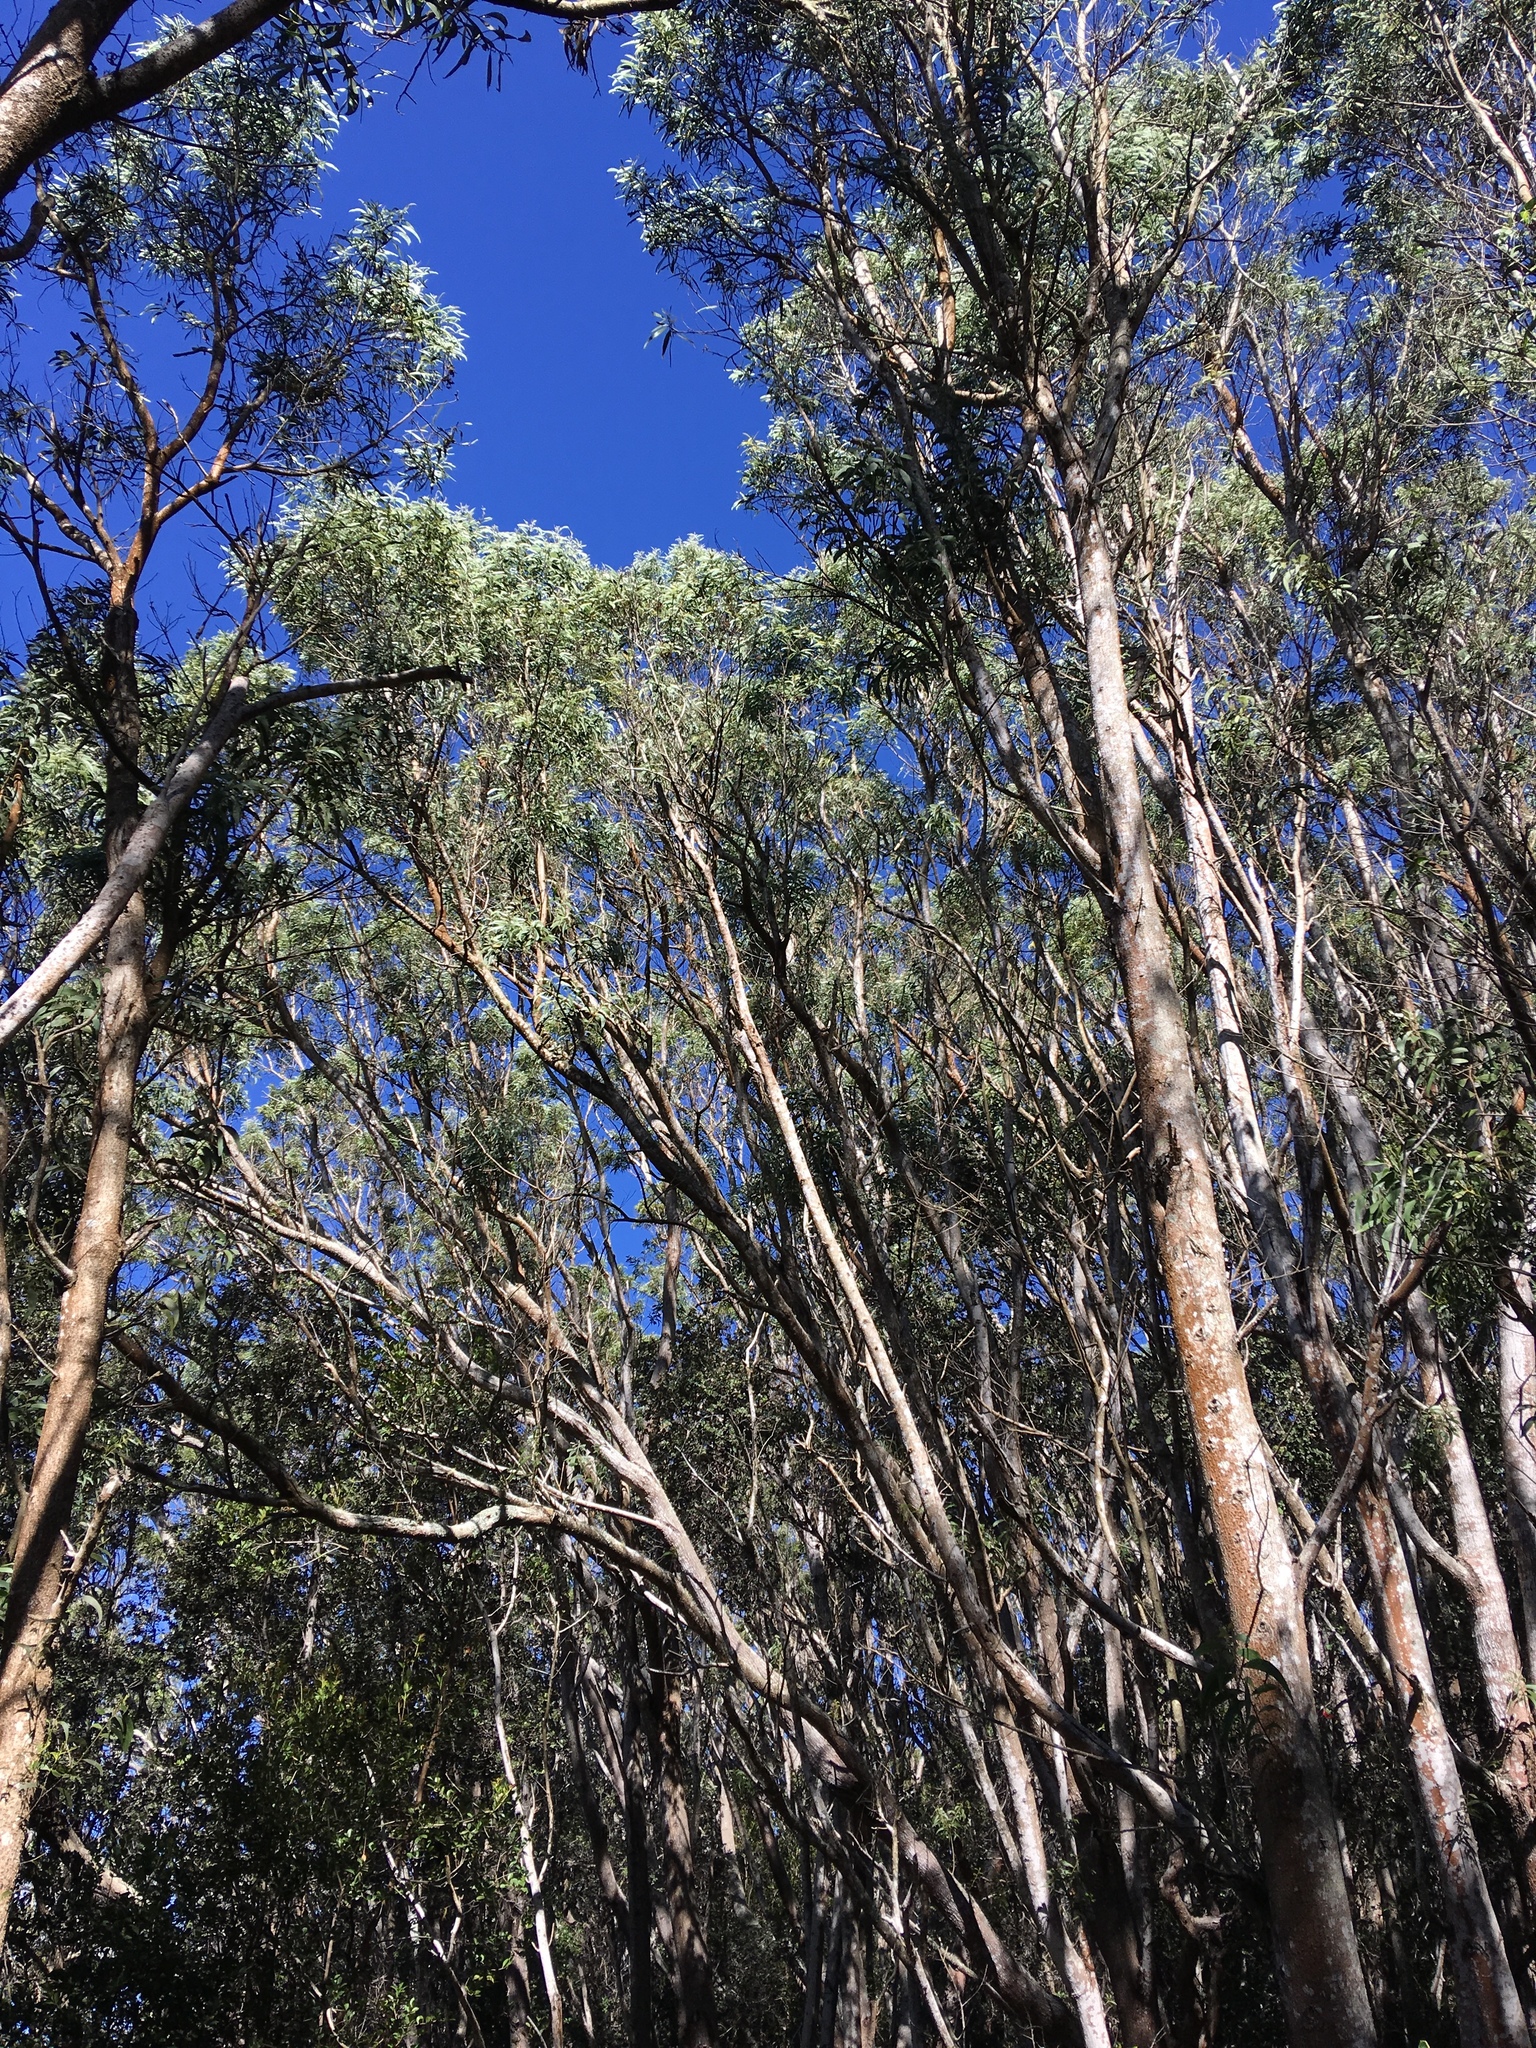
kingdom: Plantae
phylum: Tracheophyta
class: Magnoliopsida
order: Fabales
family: Fabaceae
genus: Acacia
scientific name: Acacia koa
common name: Gray koa
